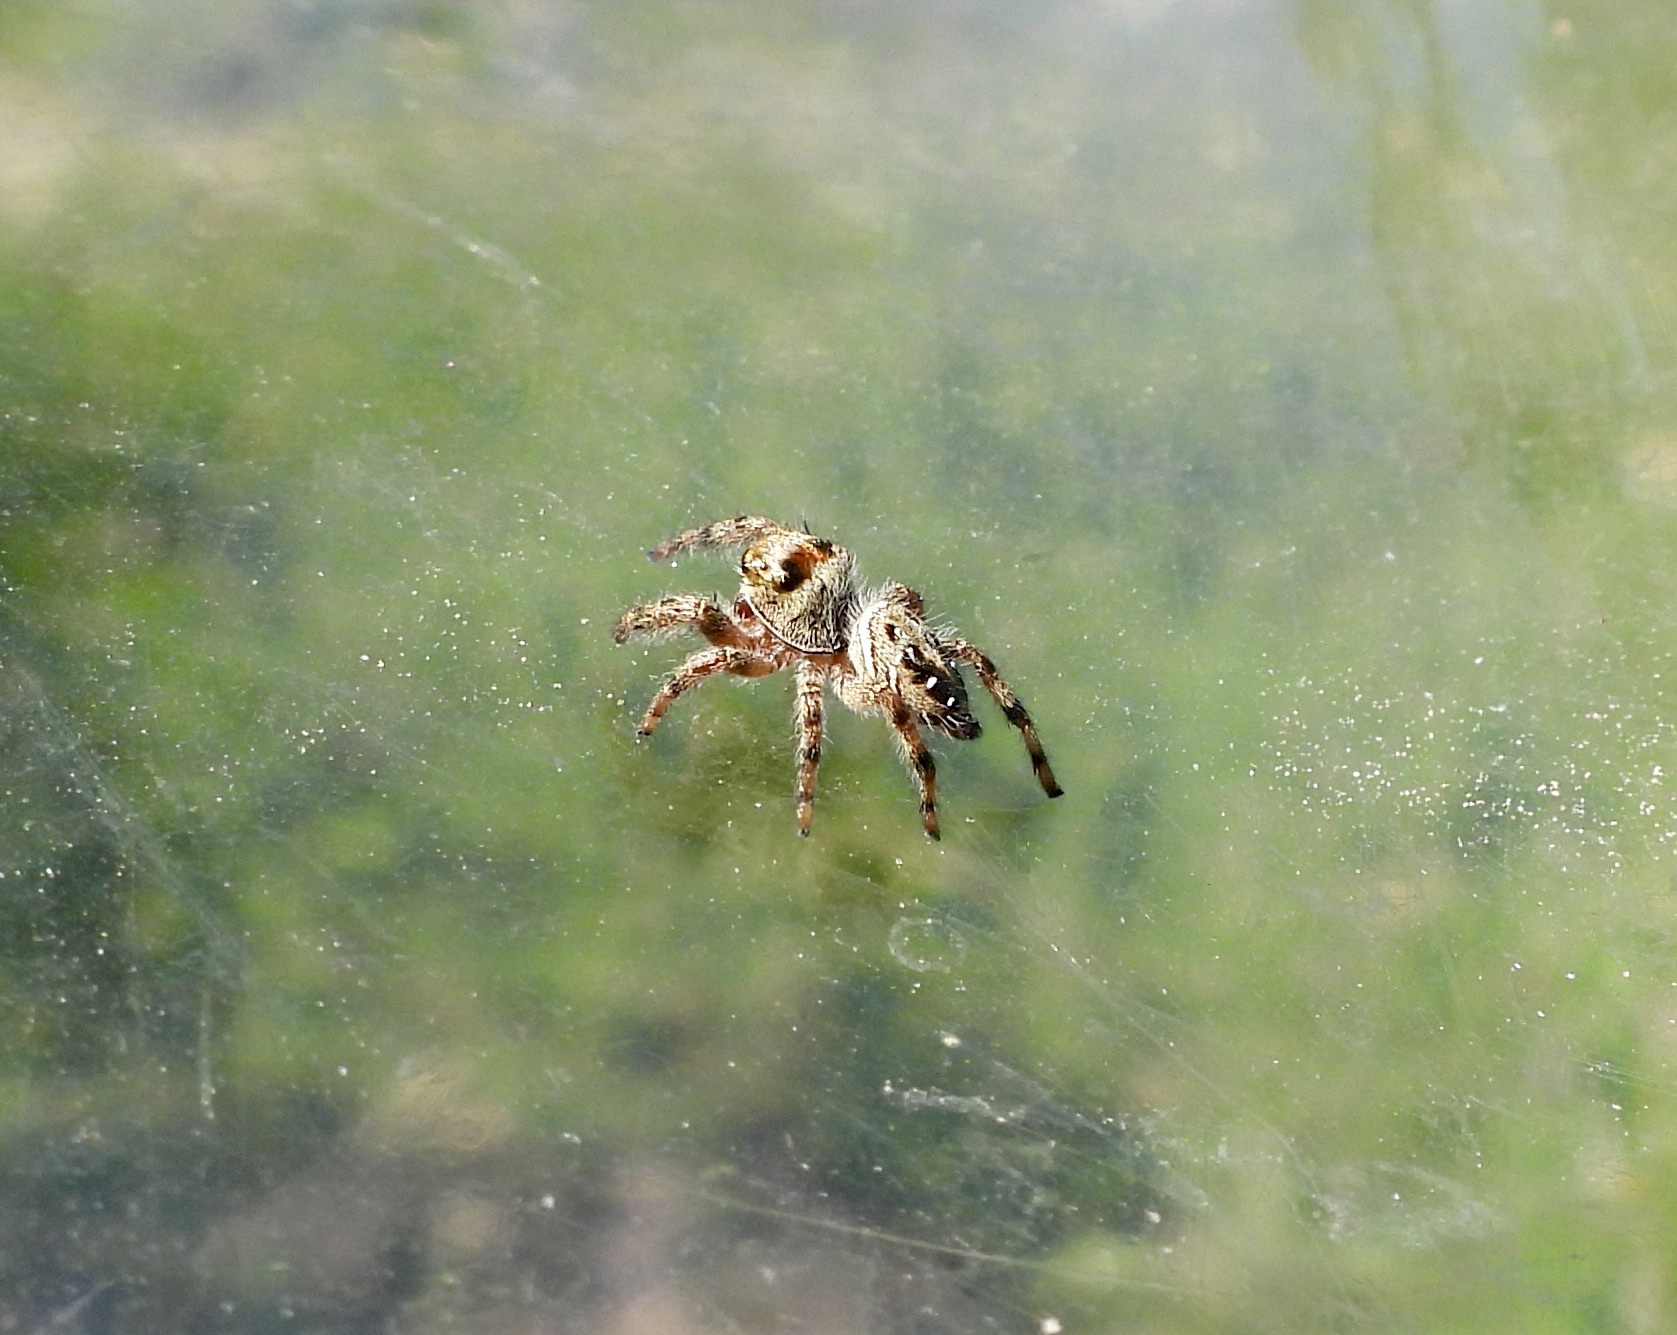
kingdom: Animalia
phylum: Arthropoda
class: Arachnida
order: Araneae
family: Salticidae
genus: Phidippus
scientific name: Phidippus clarus
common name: Brilliant jumping spider
